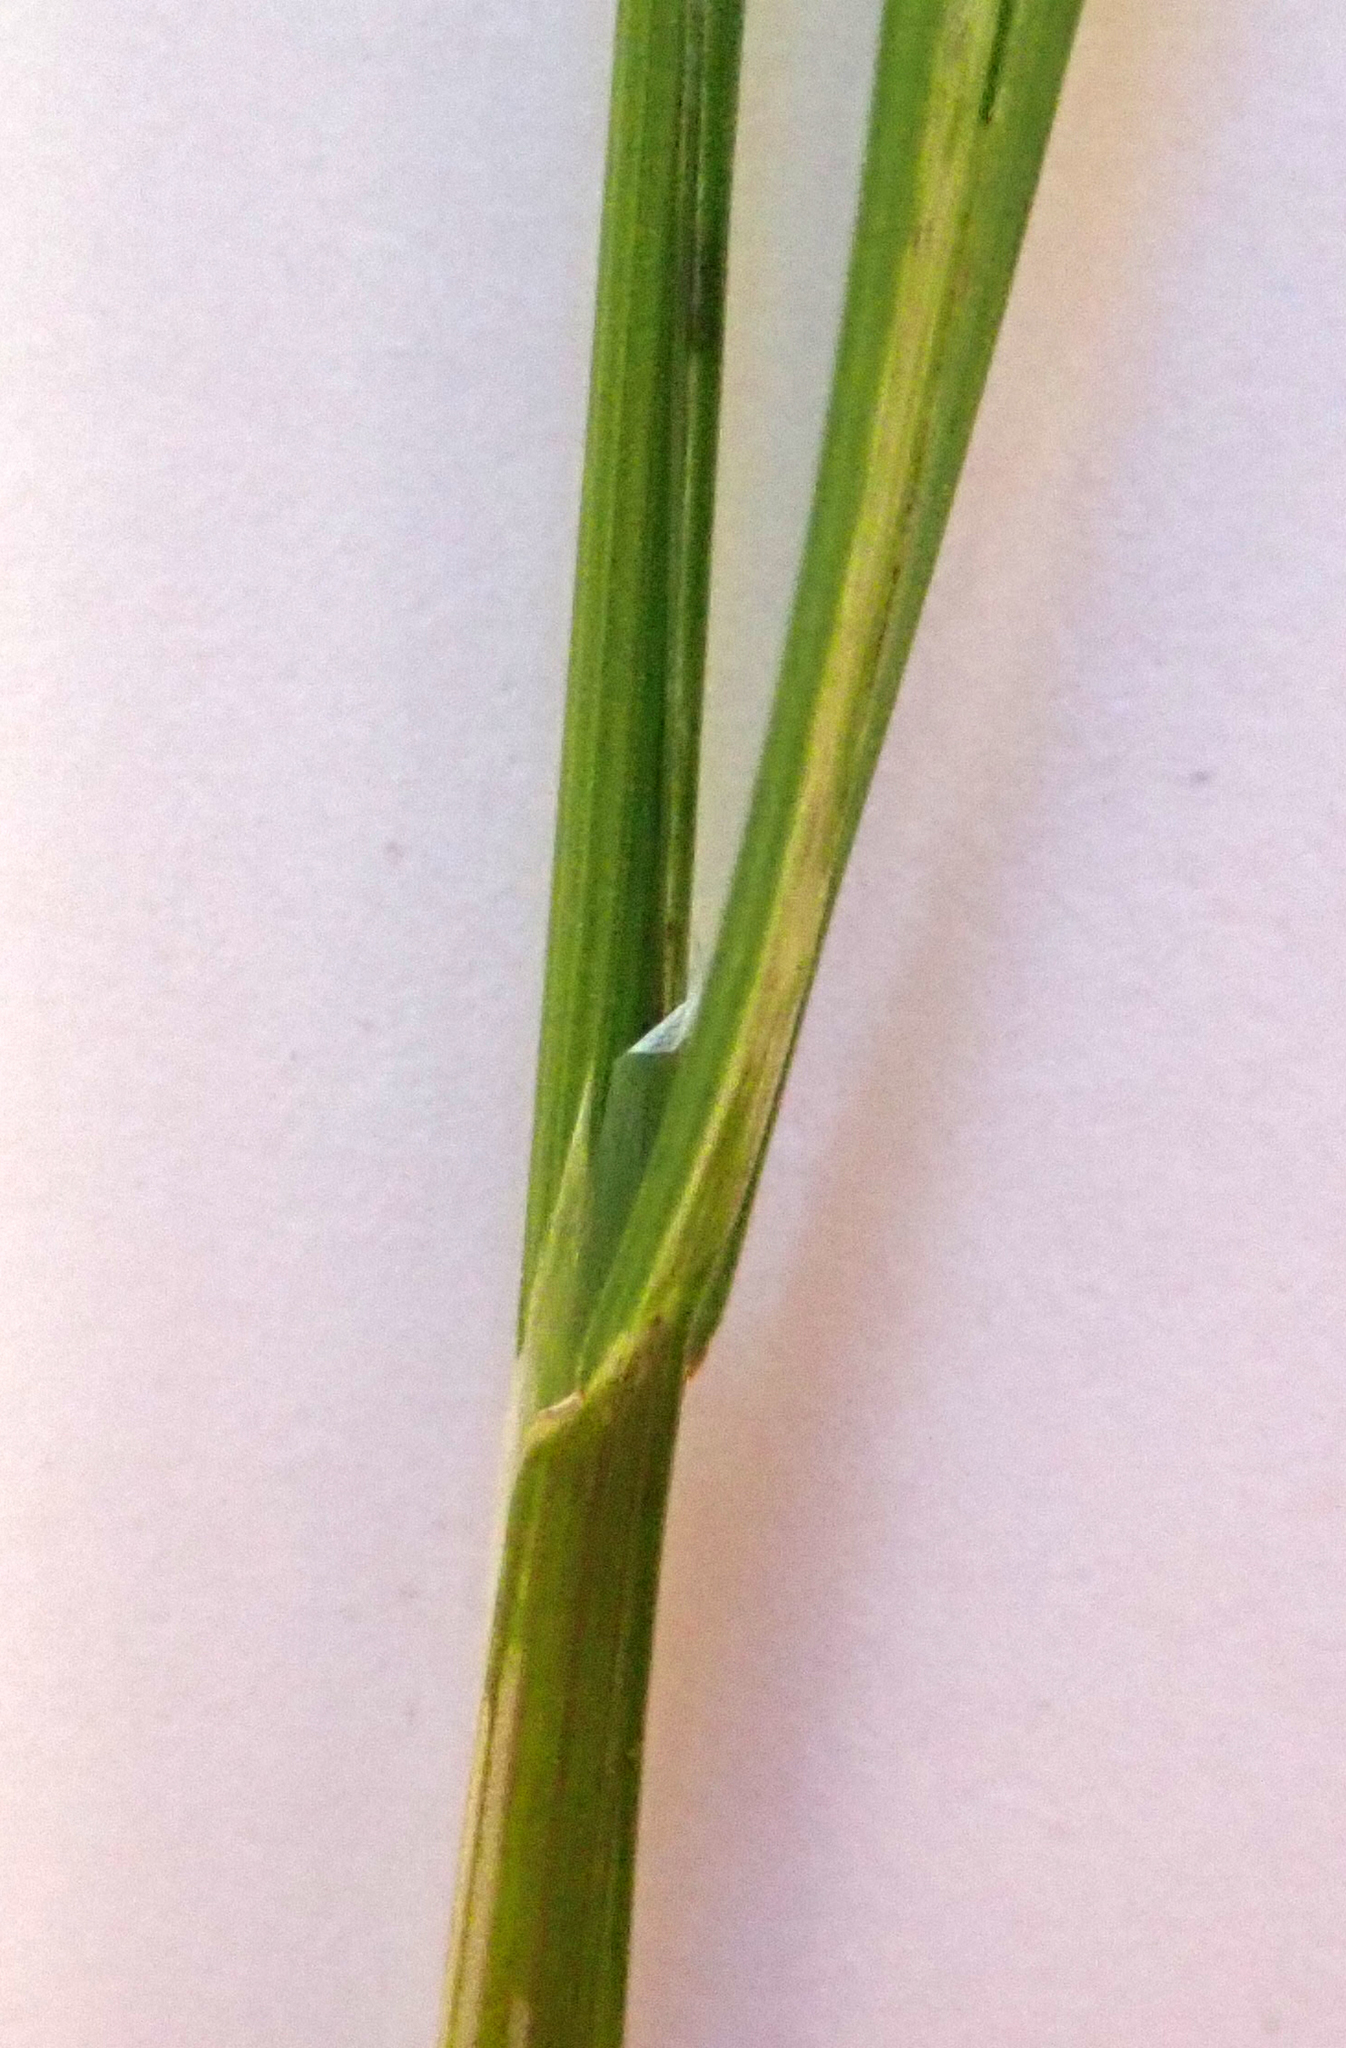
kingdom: Plantae
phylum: Tracheophyta
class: Liliopsida
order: Poales
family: Poaceae
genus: Poa
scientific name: Poa trivialis
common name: Rough bluegrass
